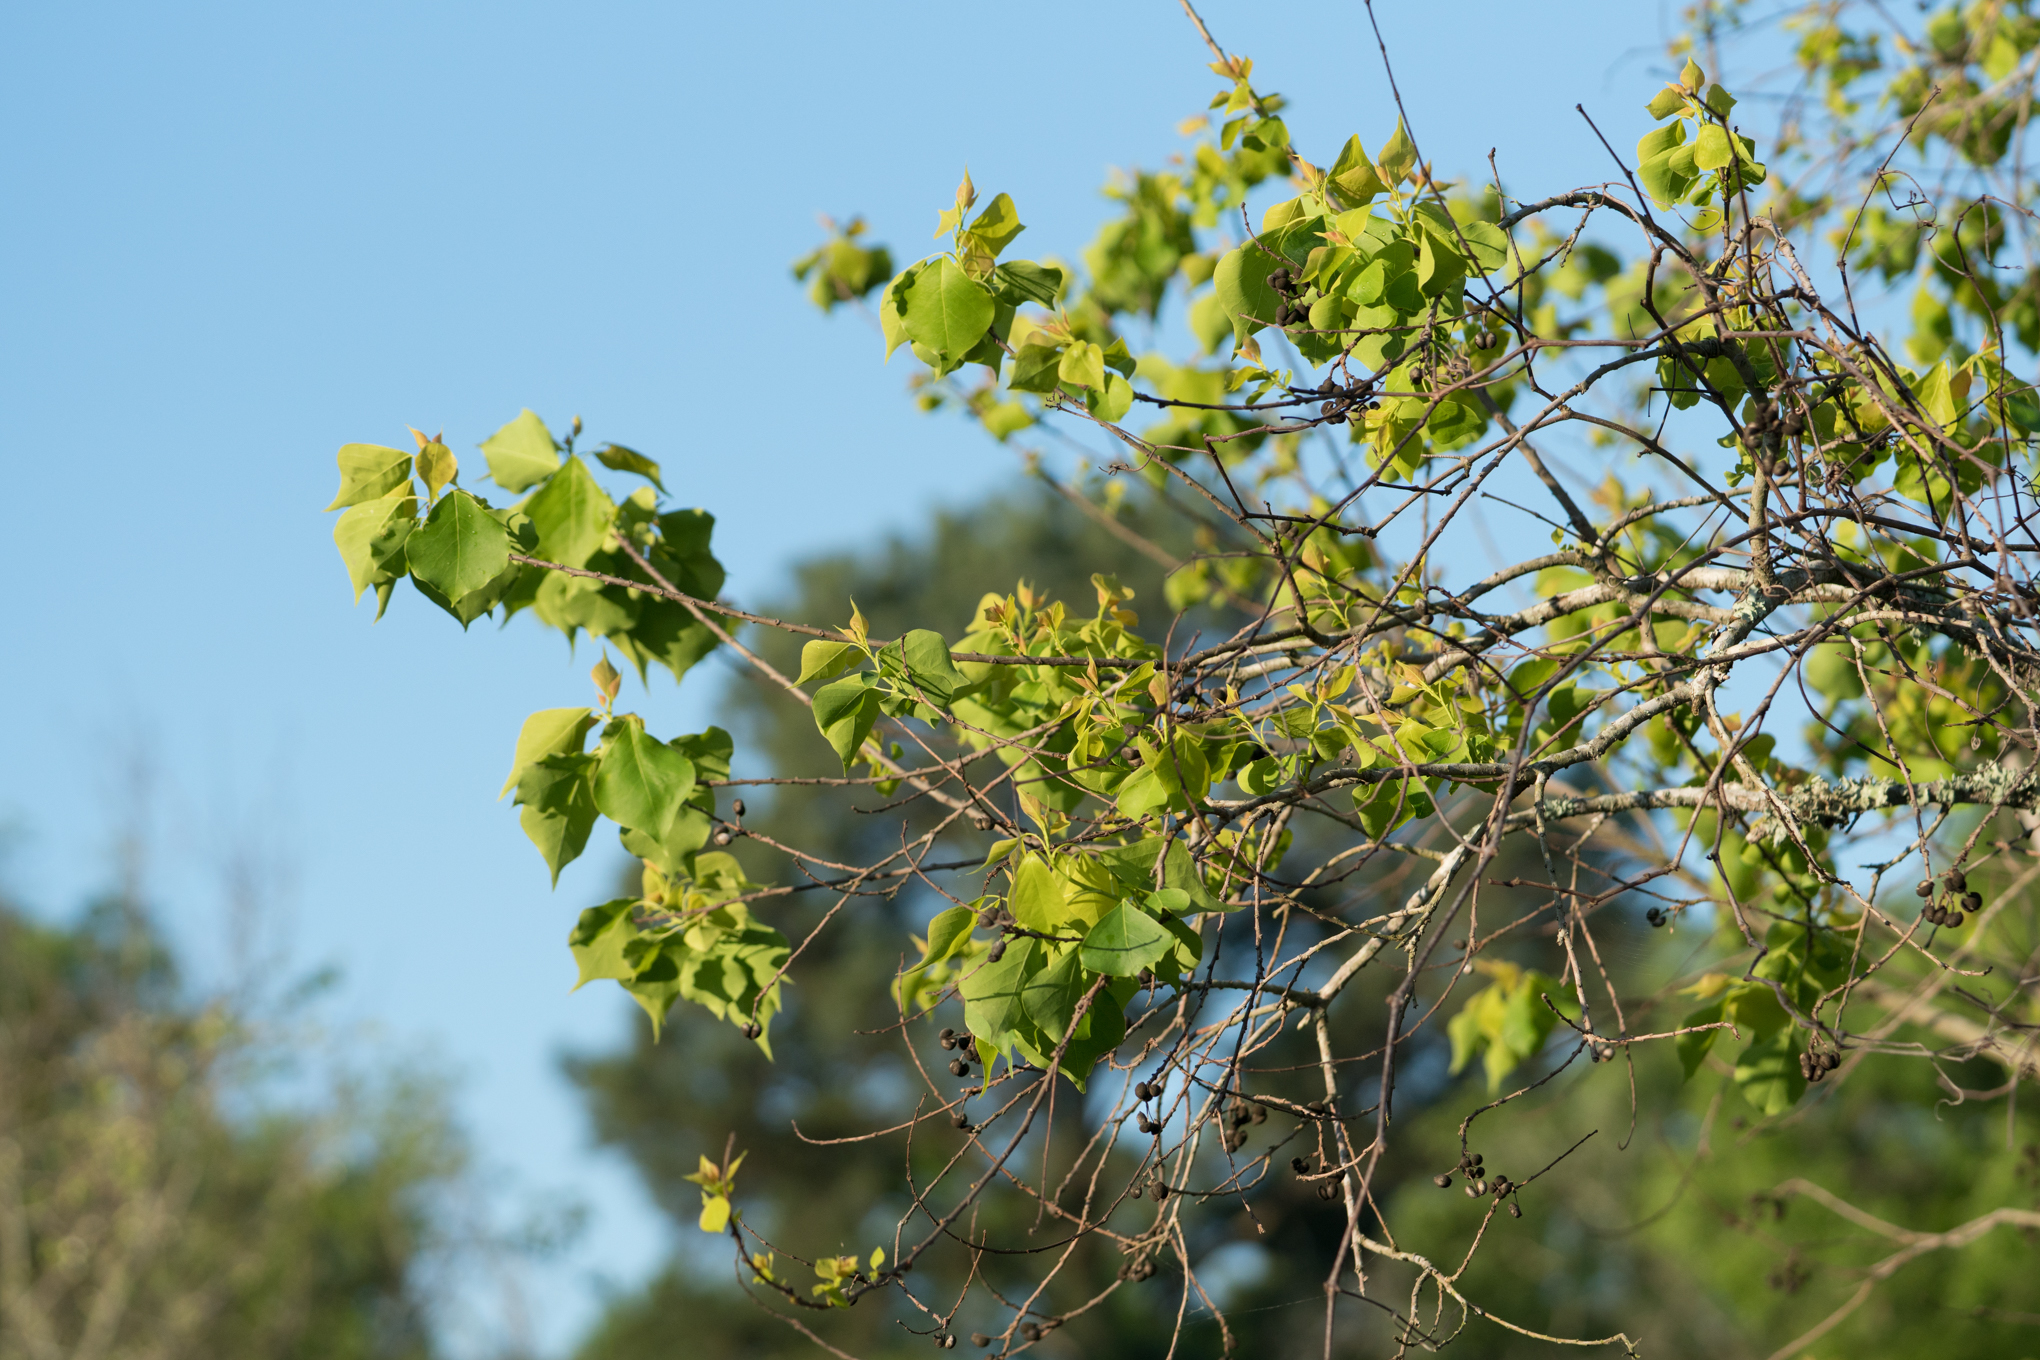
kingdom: Plantae
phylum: Tracheophyta
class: Magnoliopsida
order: Malpighiales
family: Euphorbiaceae
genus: Triadica
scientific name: Triadica sebifera
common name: Chinese tallow
